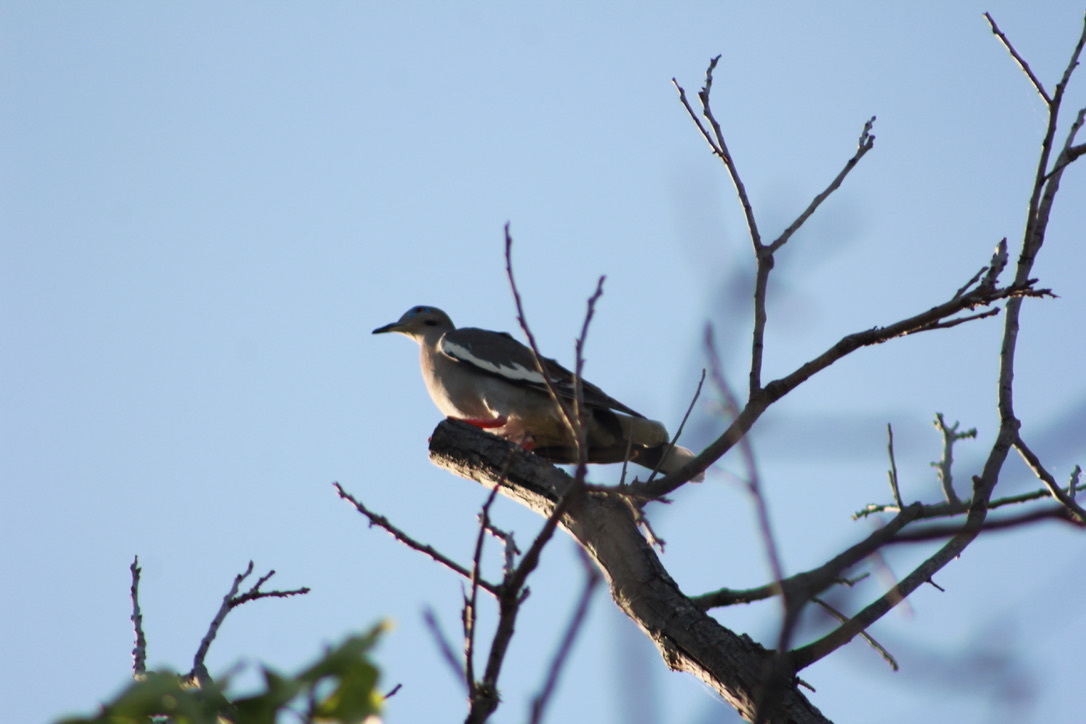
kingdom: Animalia
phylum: Chordata
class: Aves
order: Columbiformes
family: Columbidae
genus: Zenaida
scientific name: Zenaida asiatica
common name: White-winged dove
